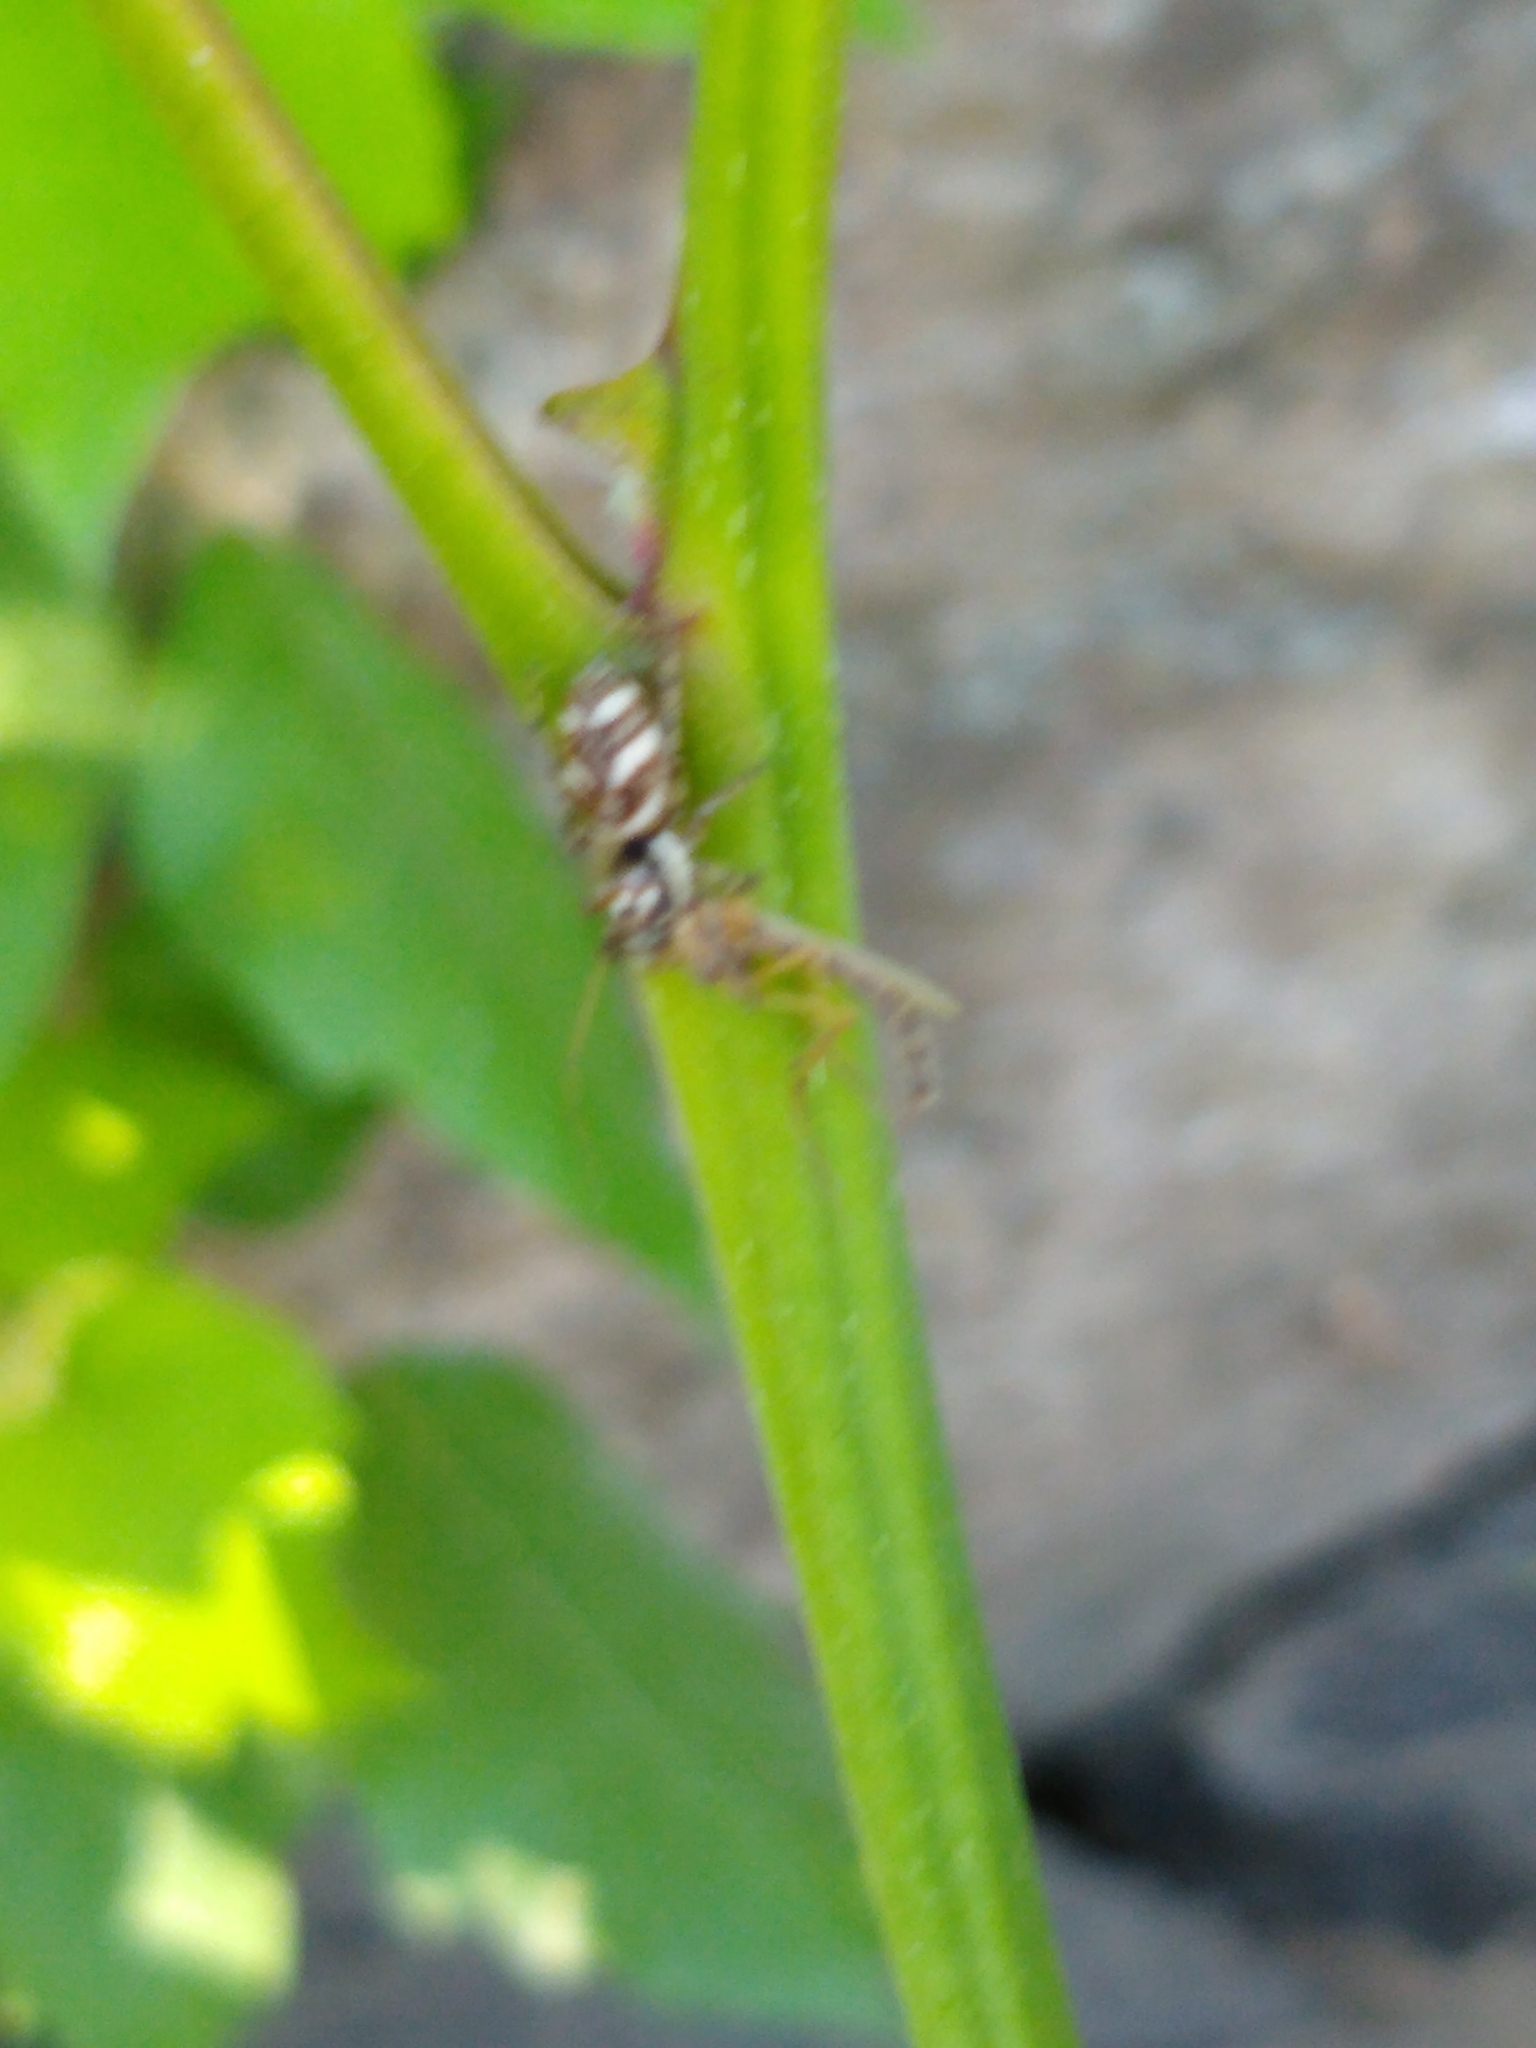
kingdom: Animalia
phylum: Arthropoda
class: Arachnida
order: Araneae
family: Salticidae
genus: Salticus
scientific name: Salticus scenicus
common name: Zebra jumper
